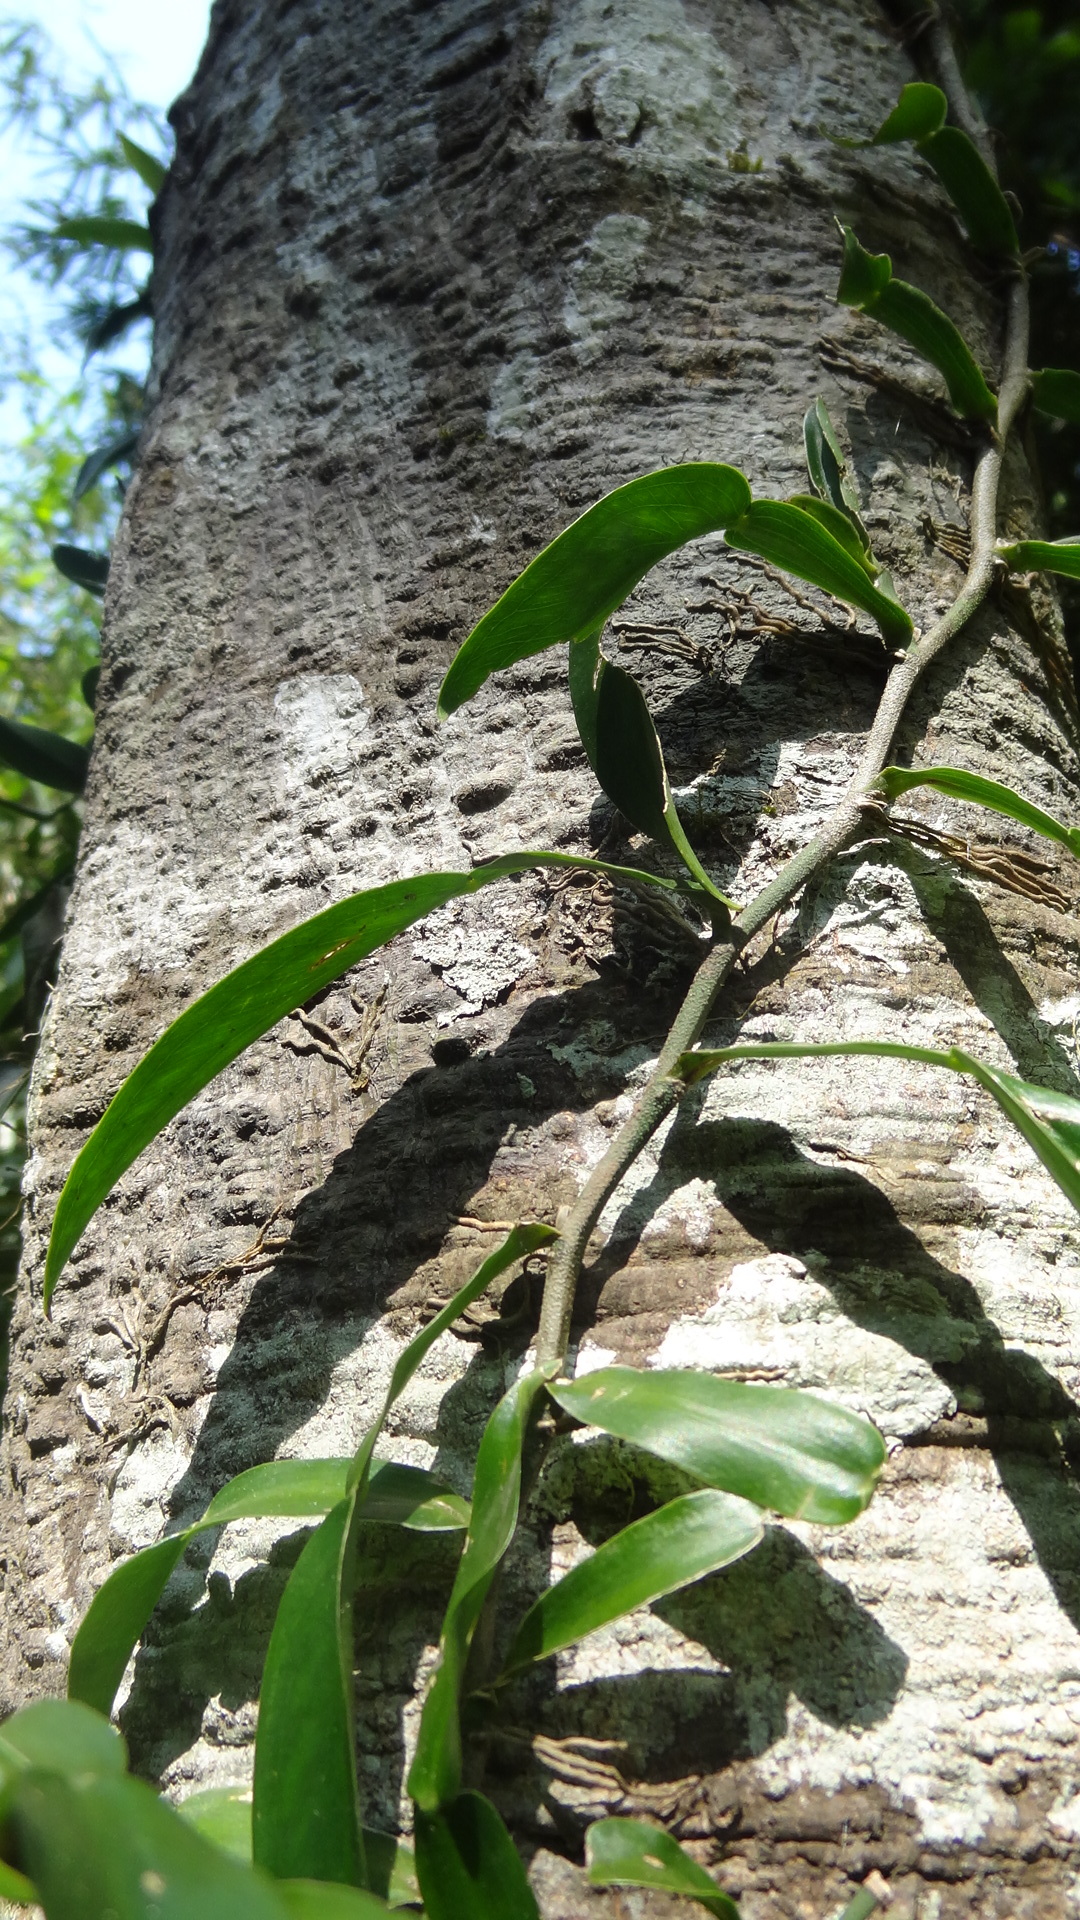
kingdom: Plantae
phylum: Tracheophyta
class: Liliopsida
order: Alismatales
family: Araceae
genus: Pothos
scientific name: Pothos scandens
